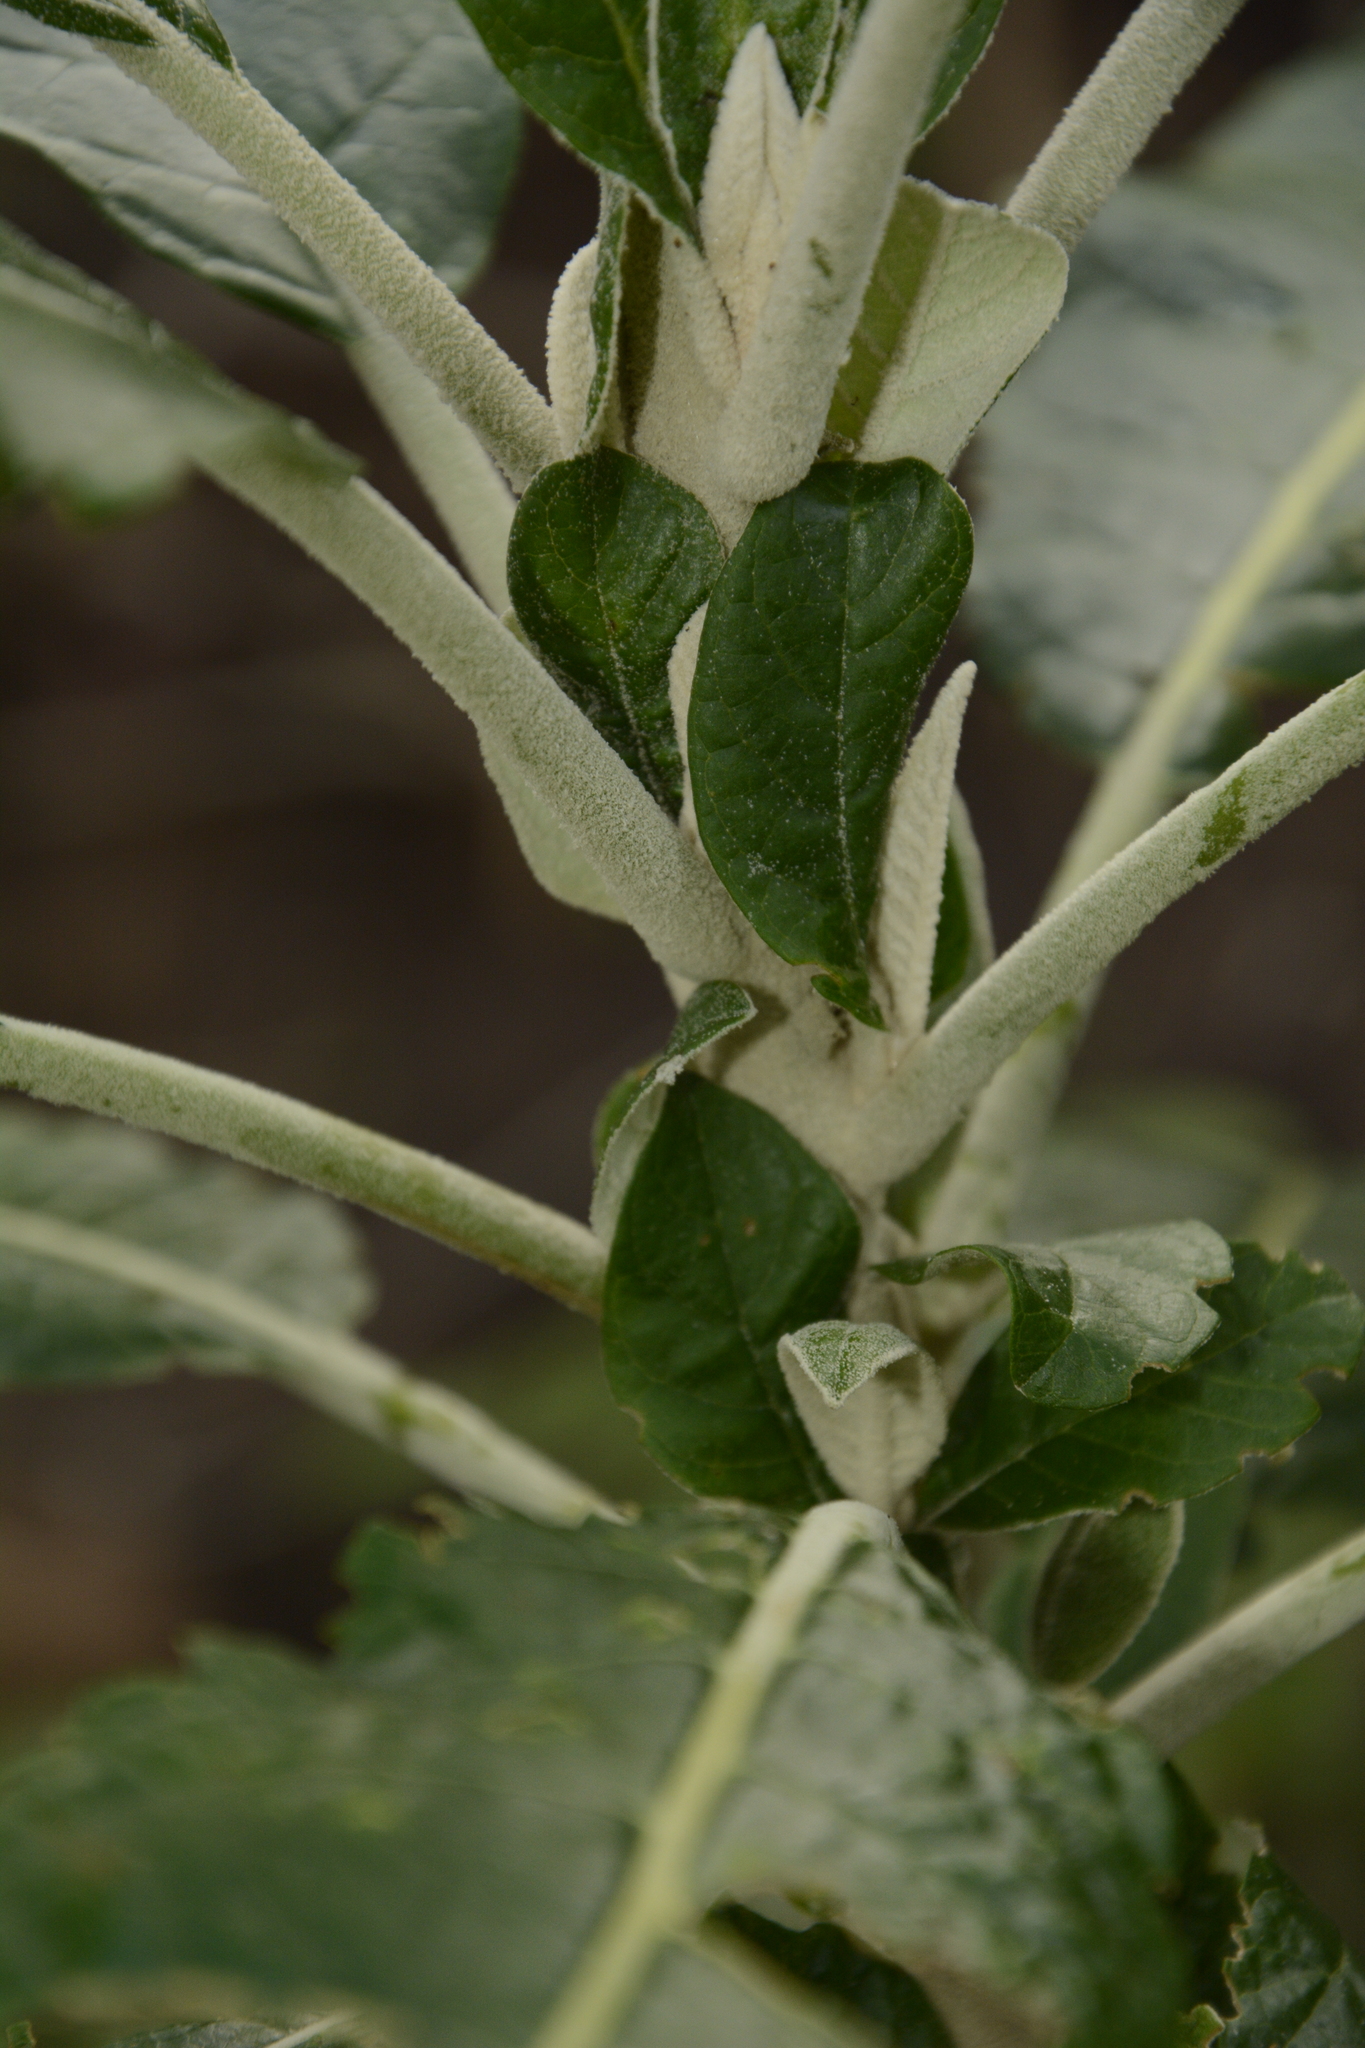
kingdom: Plantae
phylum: Tracheophyta
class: Magnoliopsida
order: Solanales
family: Solanaceae
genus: Solanum
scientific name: Solanum giganteum
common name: Healing-leaf-tree
